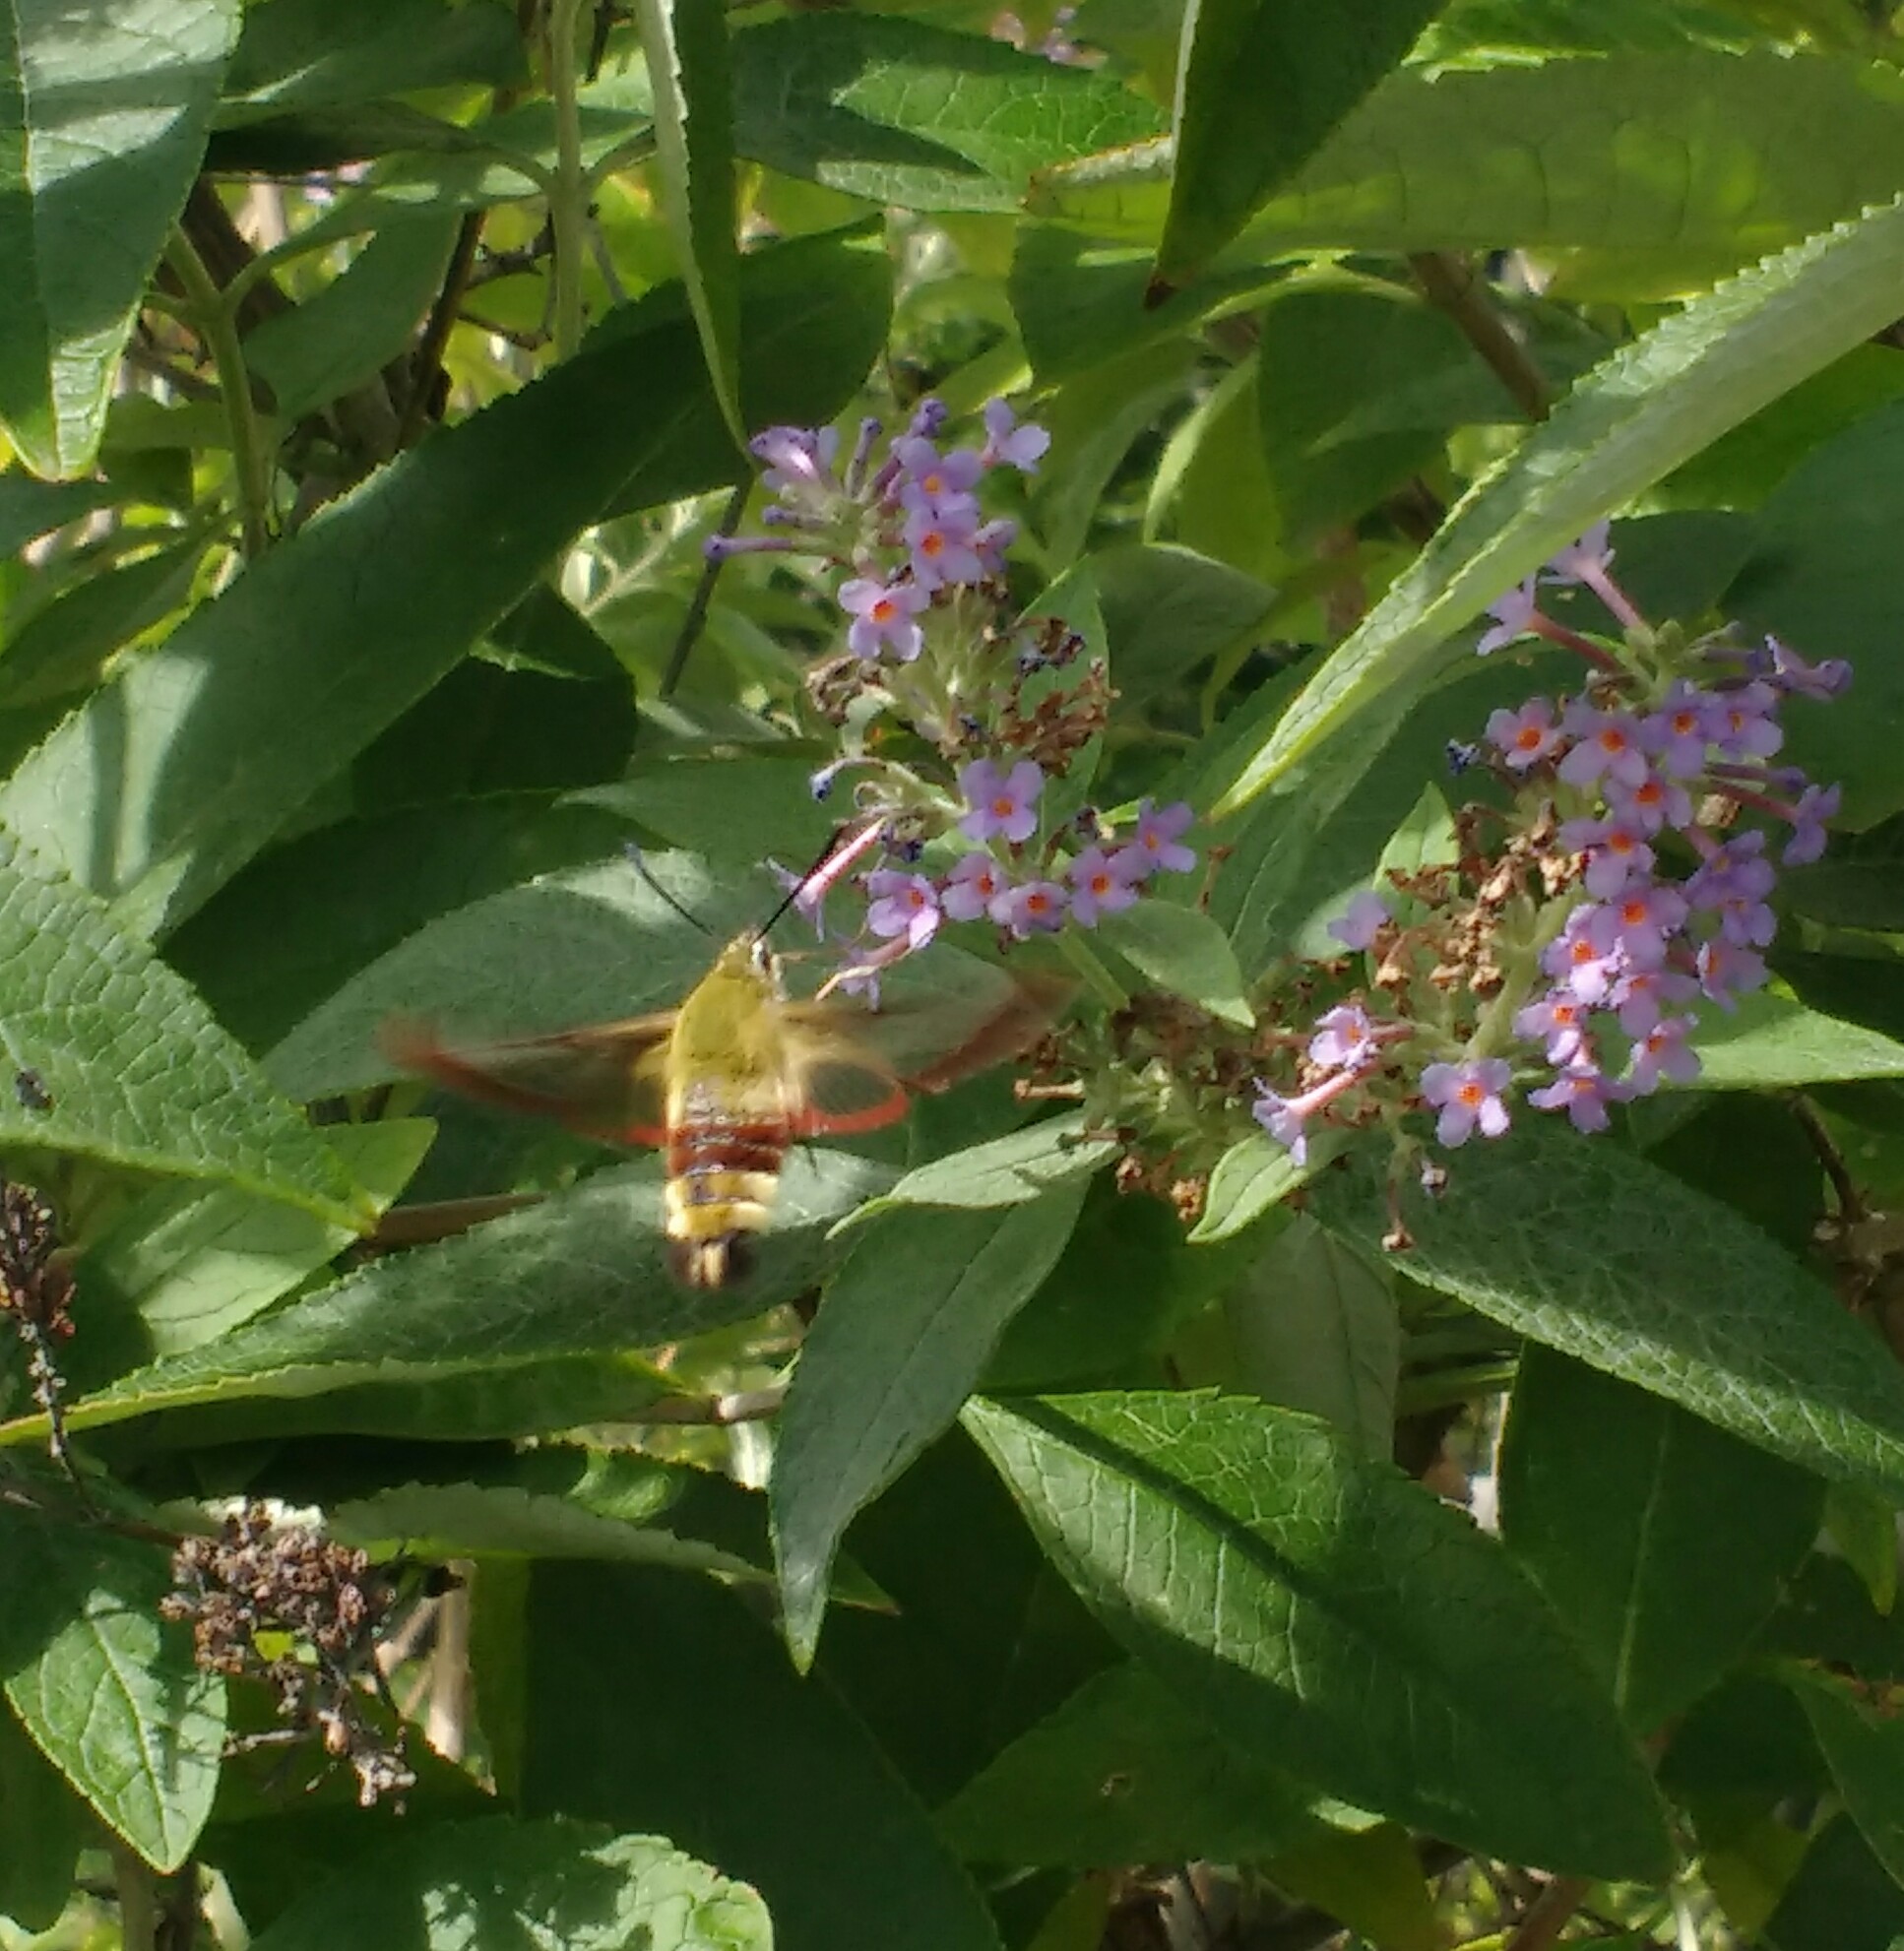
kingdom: Animalia
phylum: Arthropoda
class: Insecta
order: Lepidoptera
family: Sphingidae
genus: Hemaris
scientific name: Hemaris fuciformis
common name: Broad-bordered bee hawk-moth
